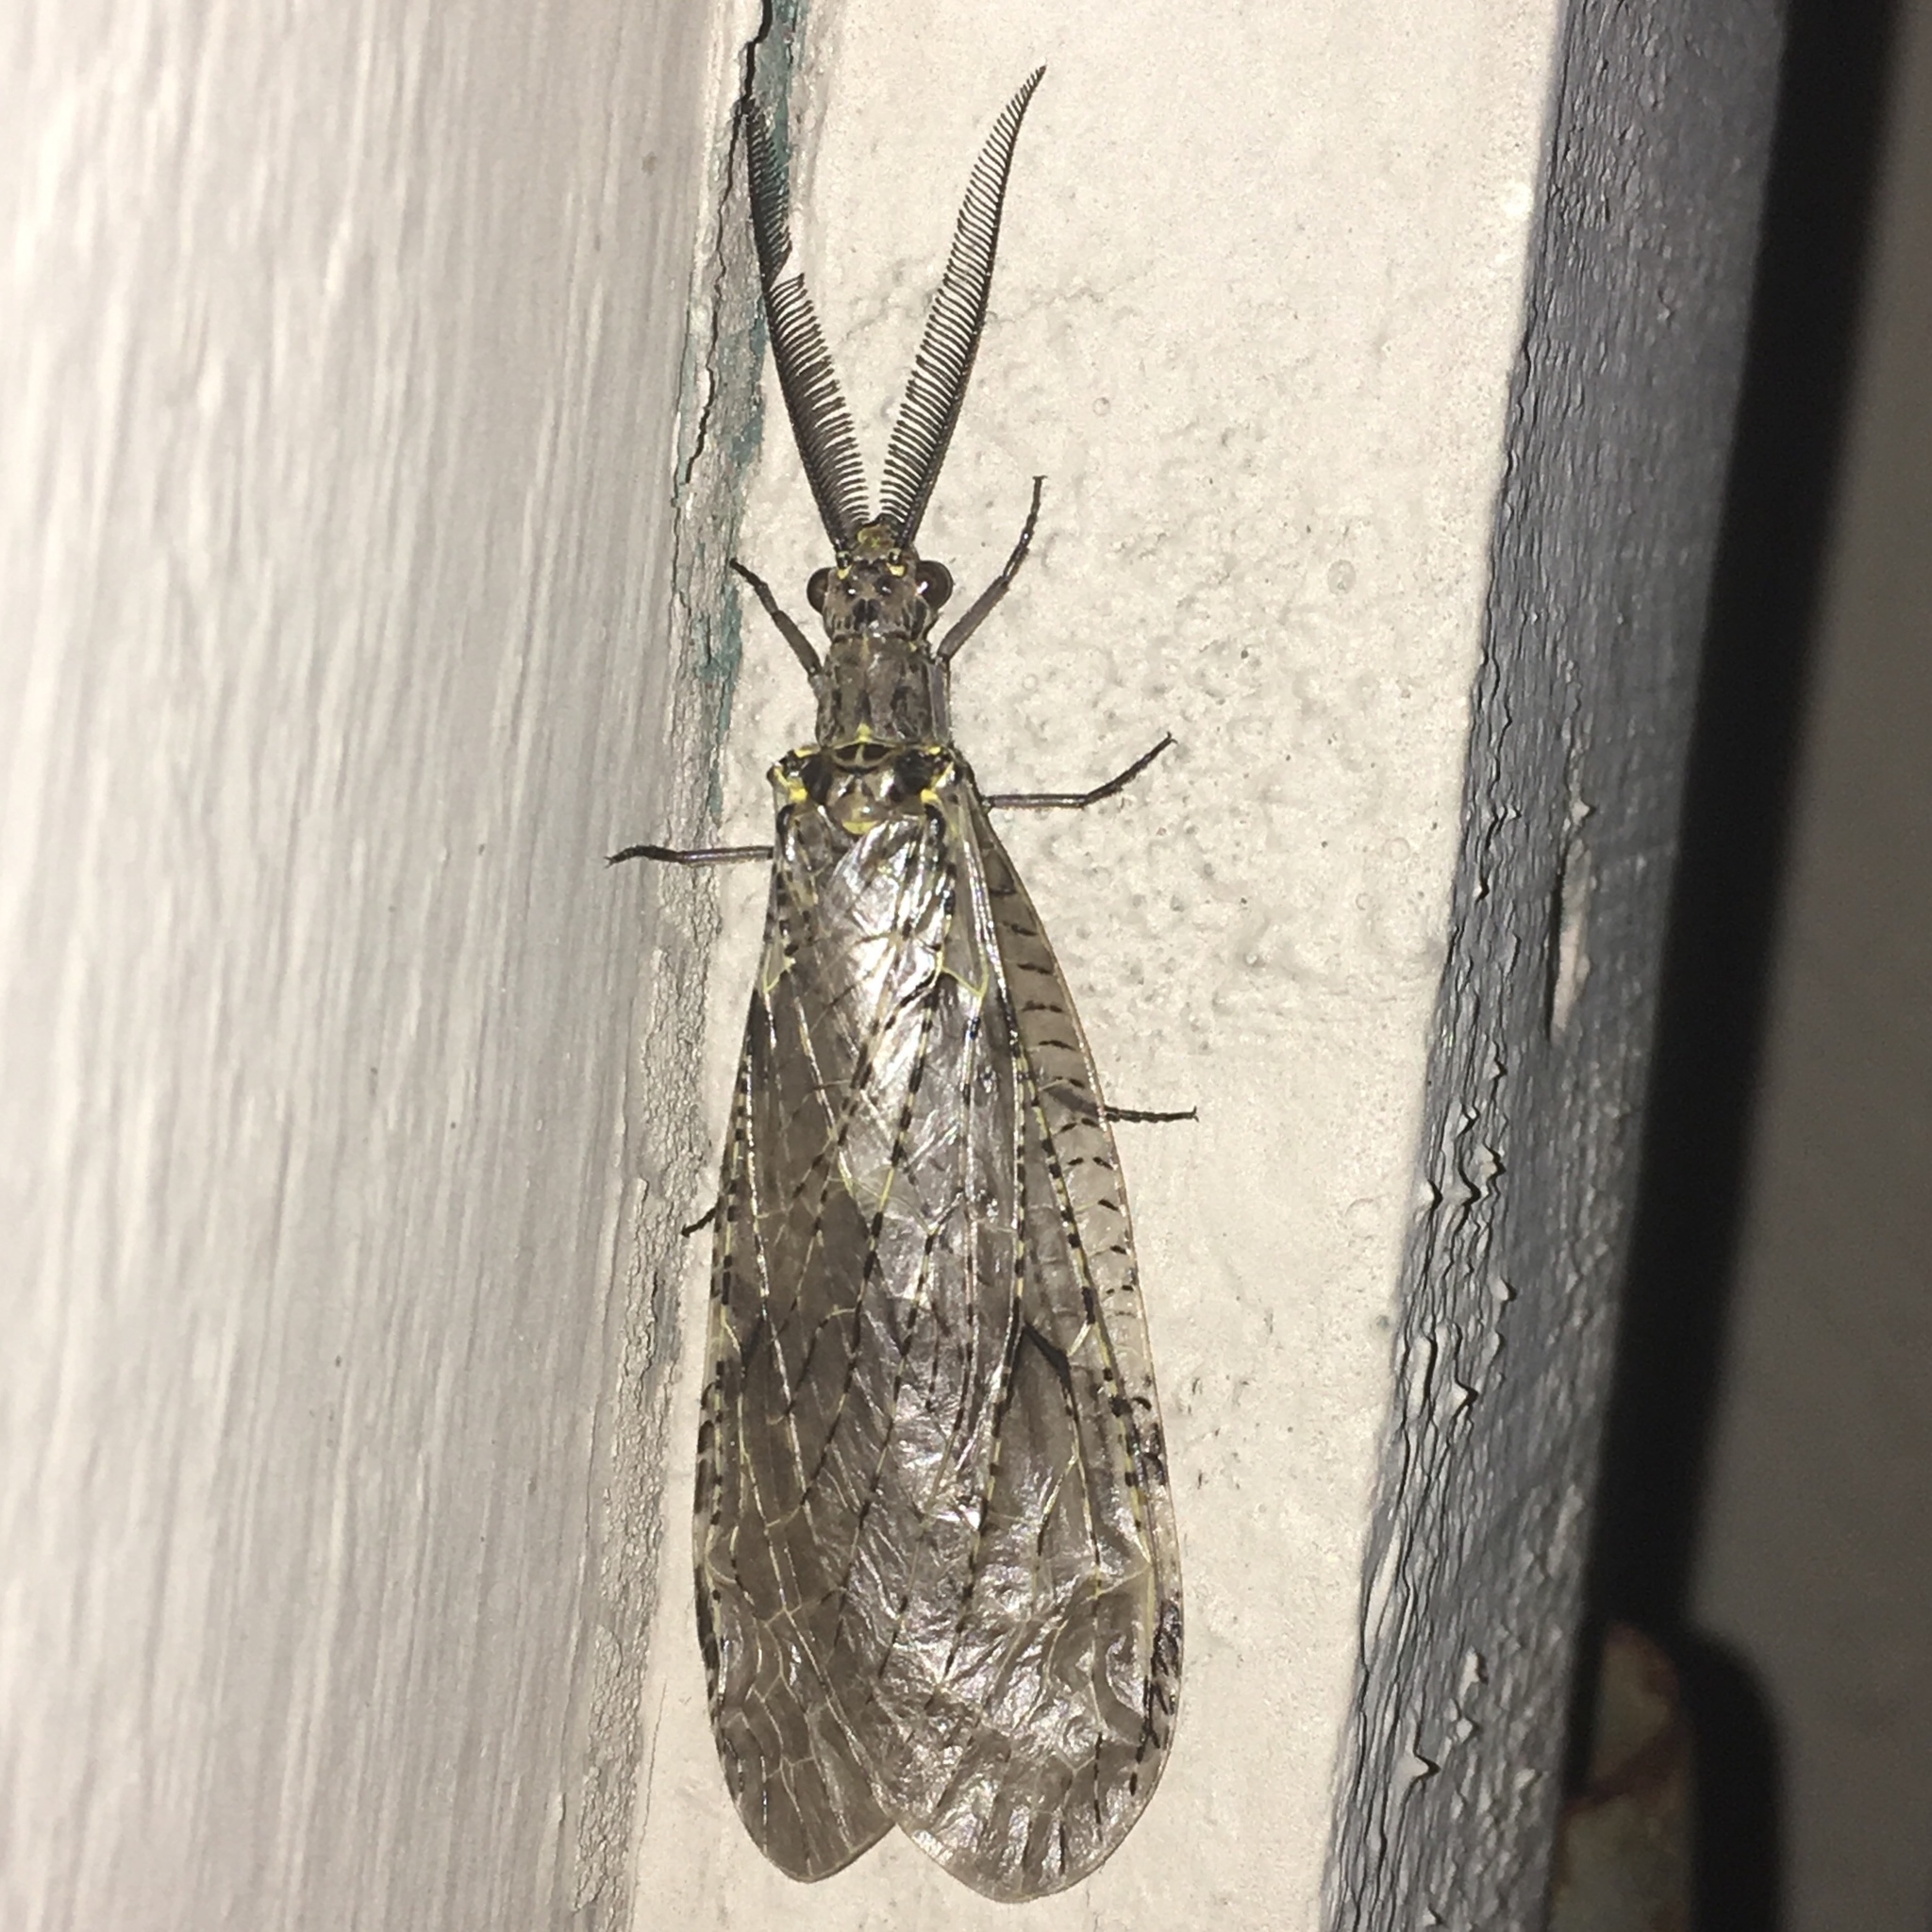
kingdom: Animalia
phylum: Arthropoda
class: Insecta
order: Megaloptera
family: Corydalidae
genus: Chauliodes
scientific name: Chauliodes rastricornis
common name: Spring fishfly
